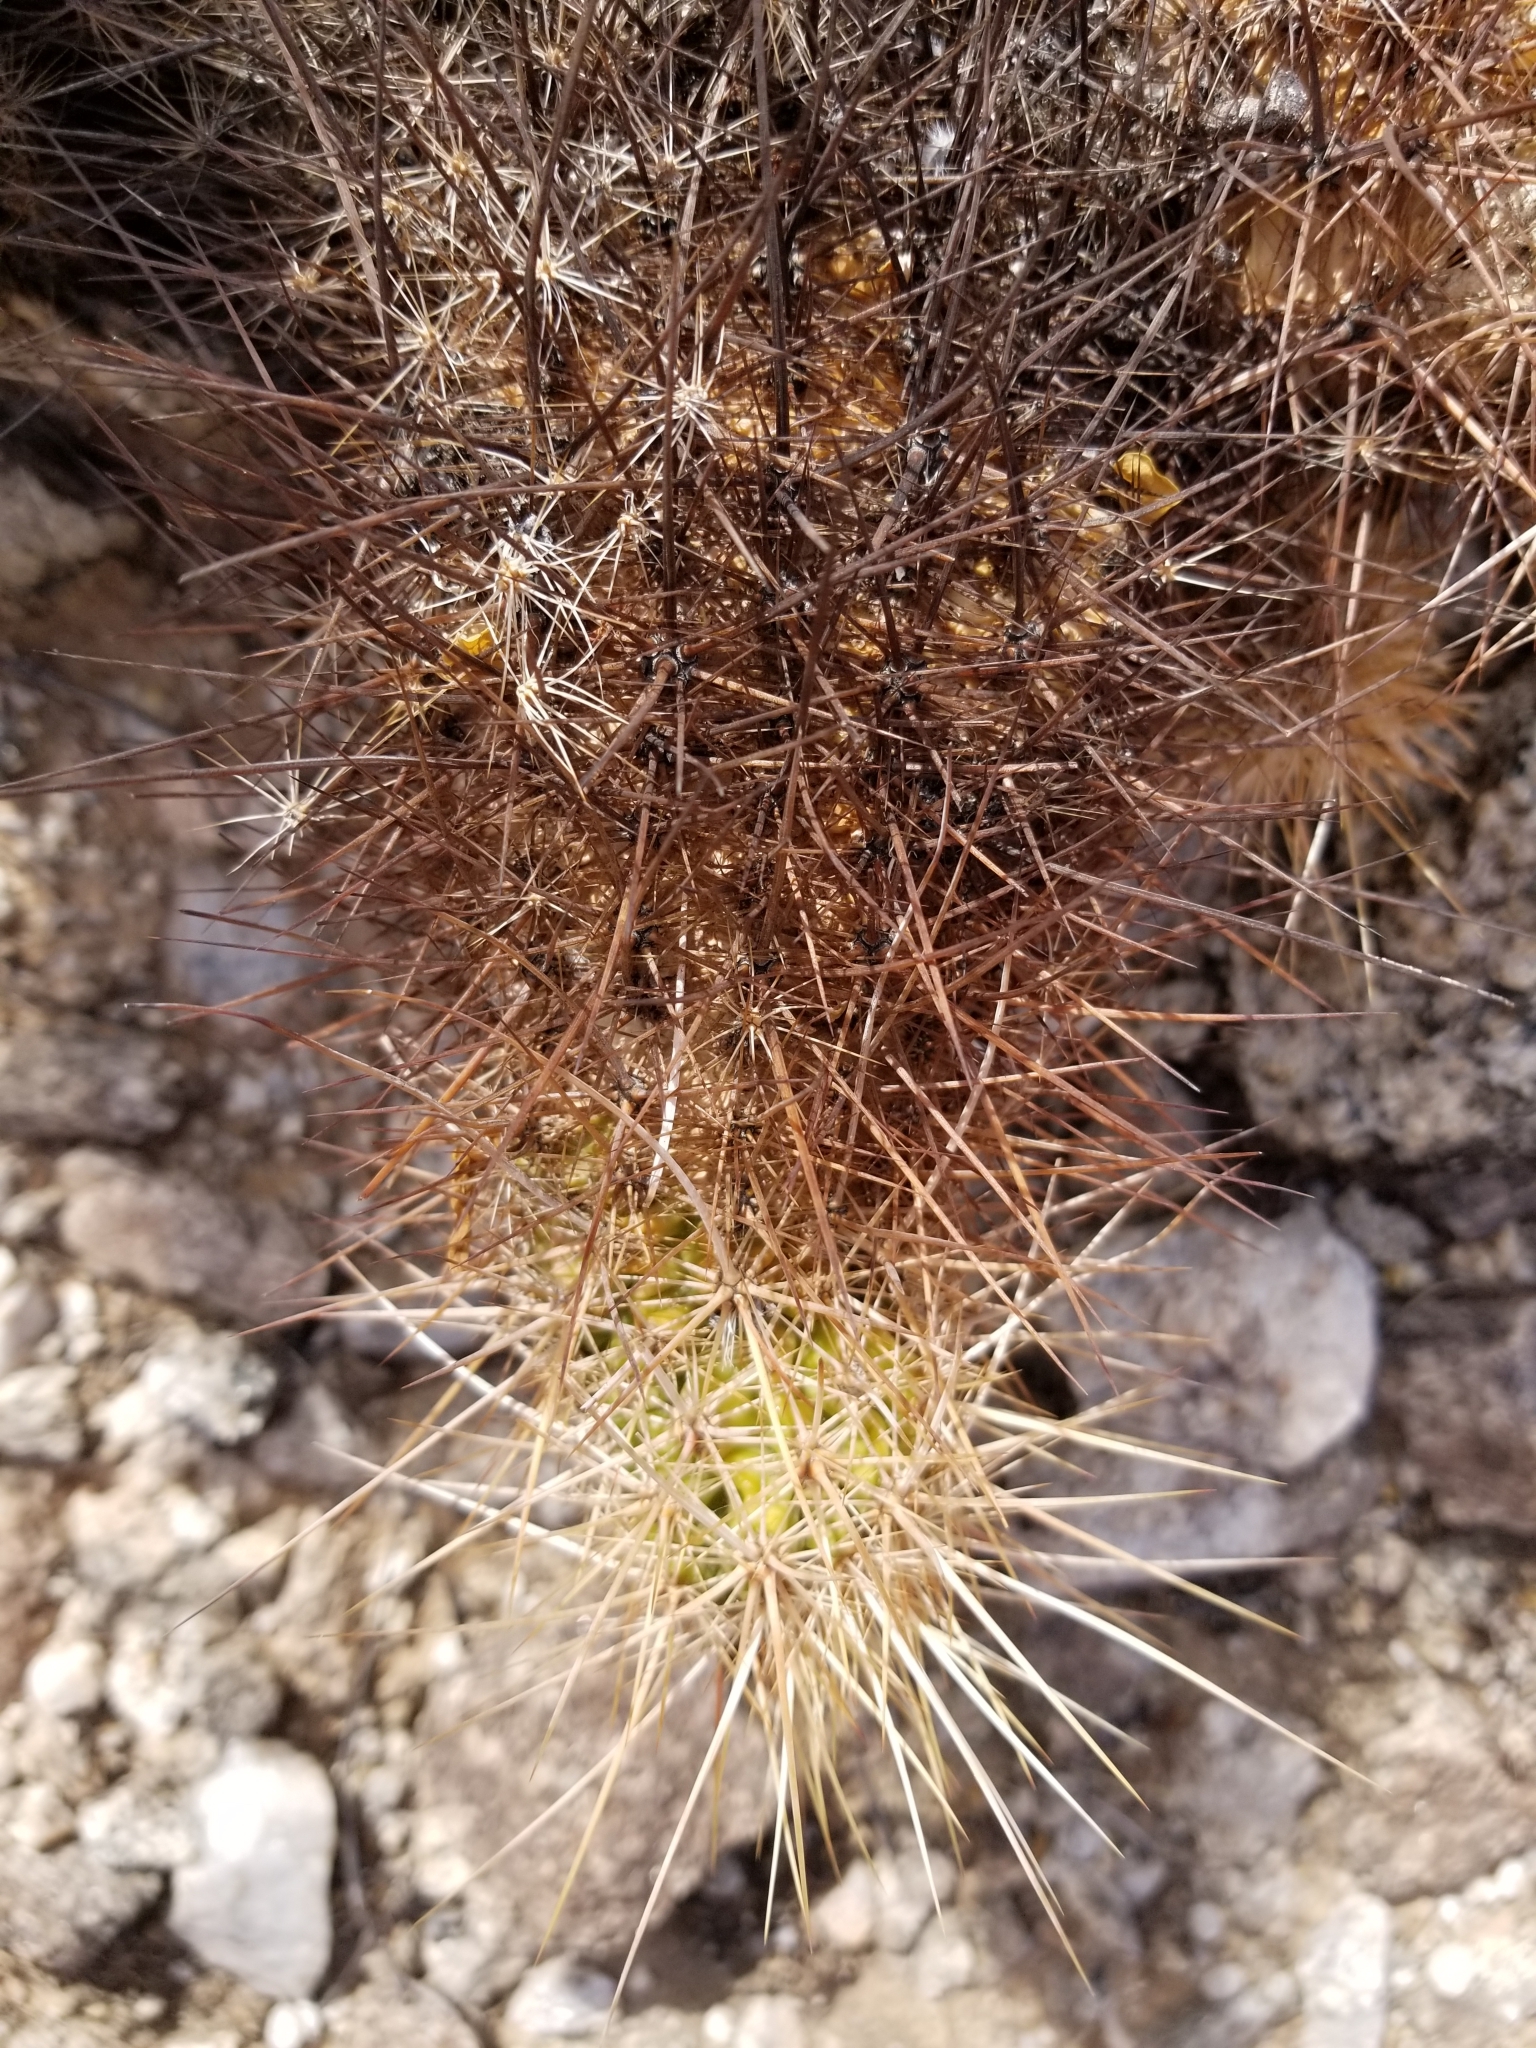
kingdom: Plantae
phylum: Tracheophyta
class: Magnoliopsida
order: Caryophyllales
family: Cactaceae
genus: Echinocereus
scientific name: Echinocereus engelmannii
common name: Engelmann's hedgehog cactus
